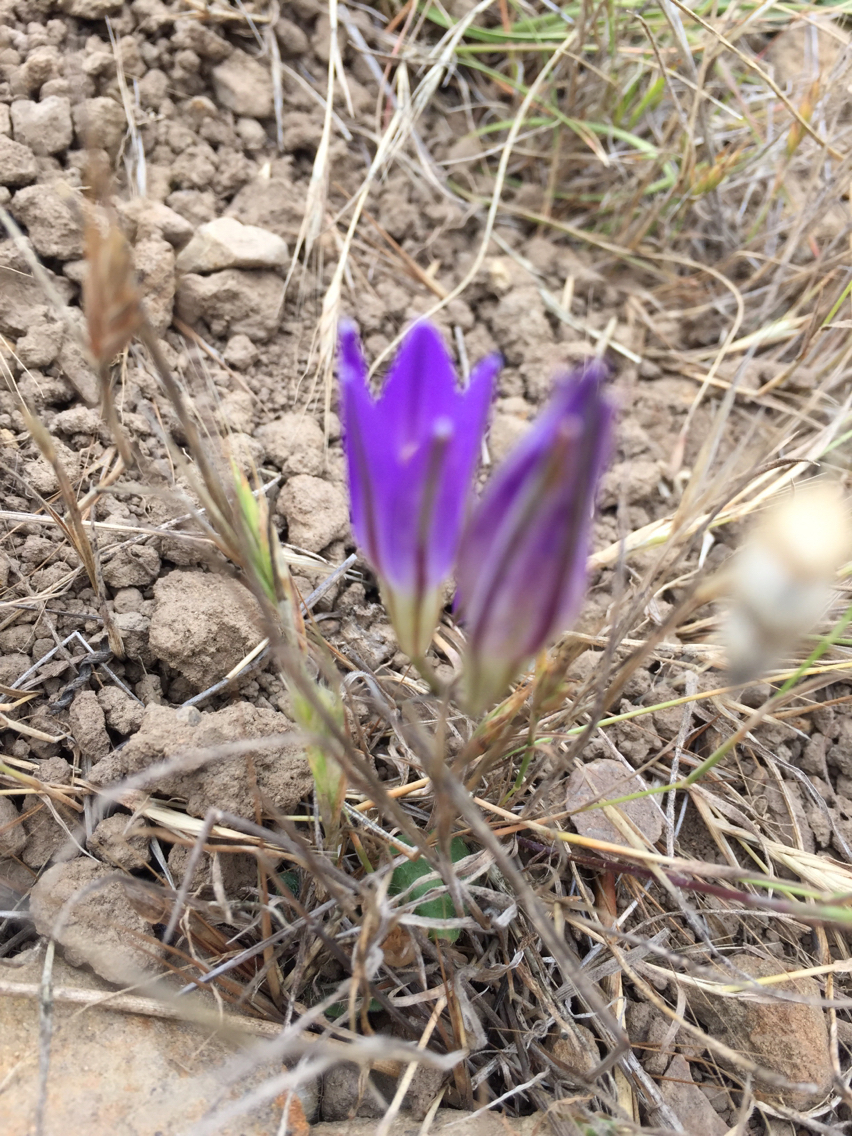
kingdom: Plantae
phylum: Tracheophyta
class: Liliopsida
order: Asparagales
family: Asparagaceae
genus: Brodiaea
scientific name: Brodiaea elegans
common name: Elegant cluster-lily
